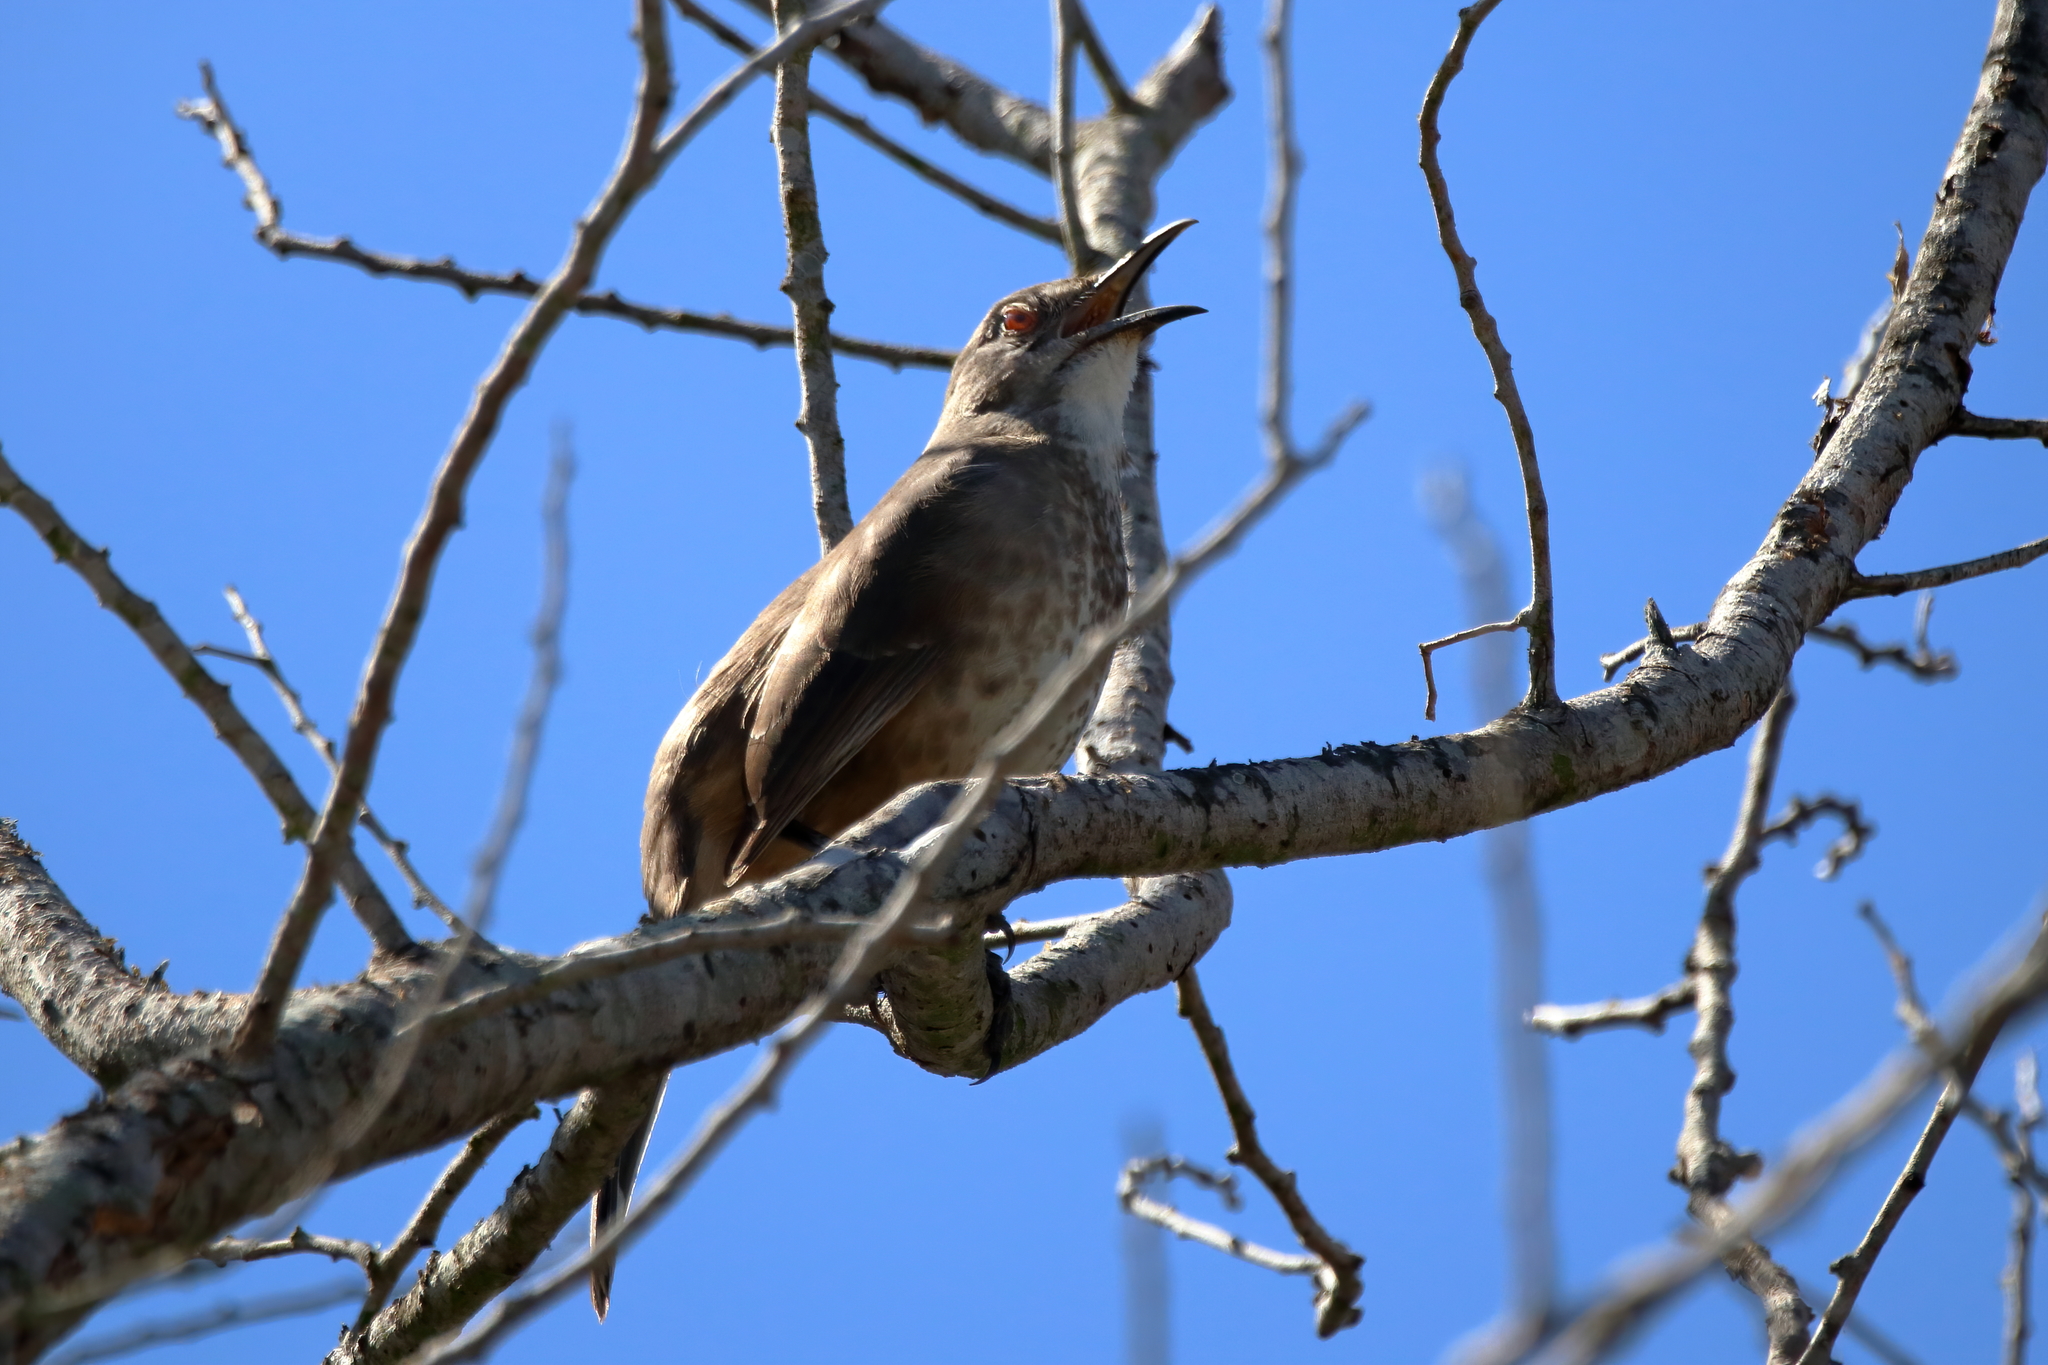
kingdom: Animalia
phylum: Chordata
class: Aves
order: Passeriformes
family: Mimidae
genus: Toxostoma
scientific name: Toxostoma curvirostre
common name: Curve-billed thrasher
